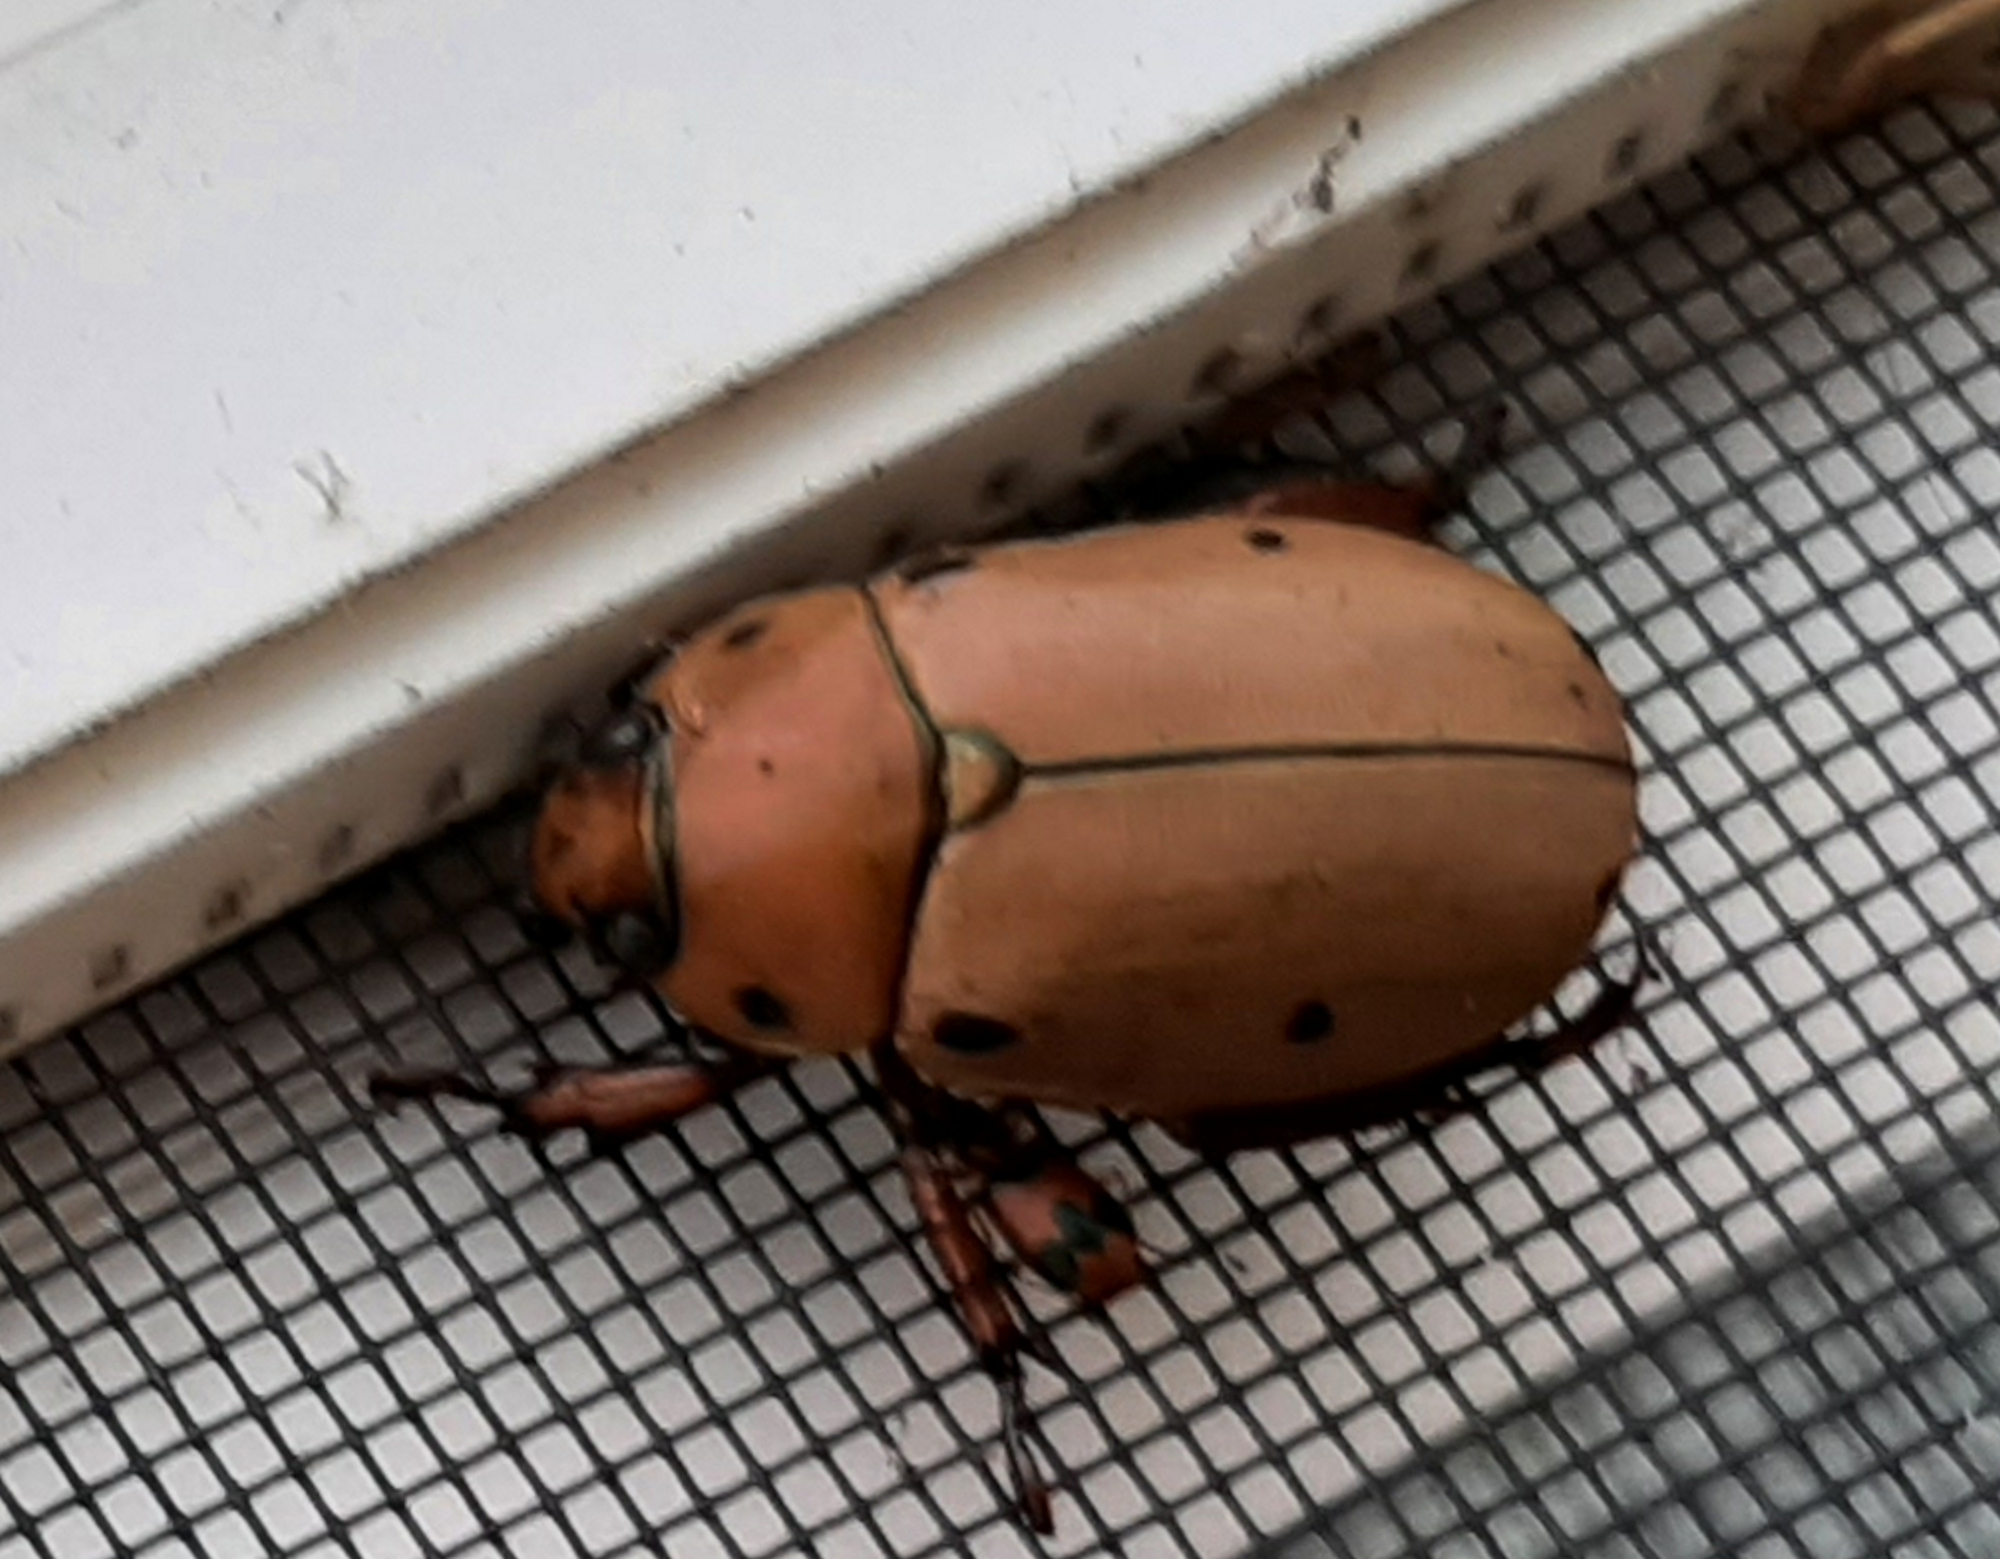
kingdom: Animalia
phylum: Arthropoda
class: Insecta
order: Coleoptera
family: Scarabaeidae
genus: Pelidnota
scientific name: Pelidnota punctata
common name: Grapevine beetle
